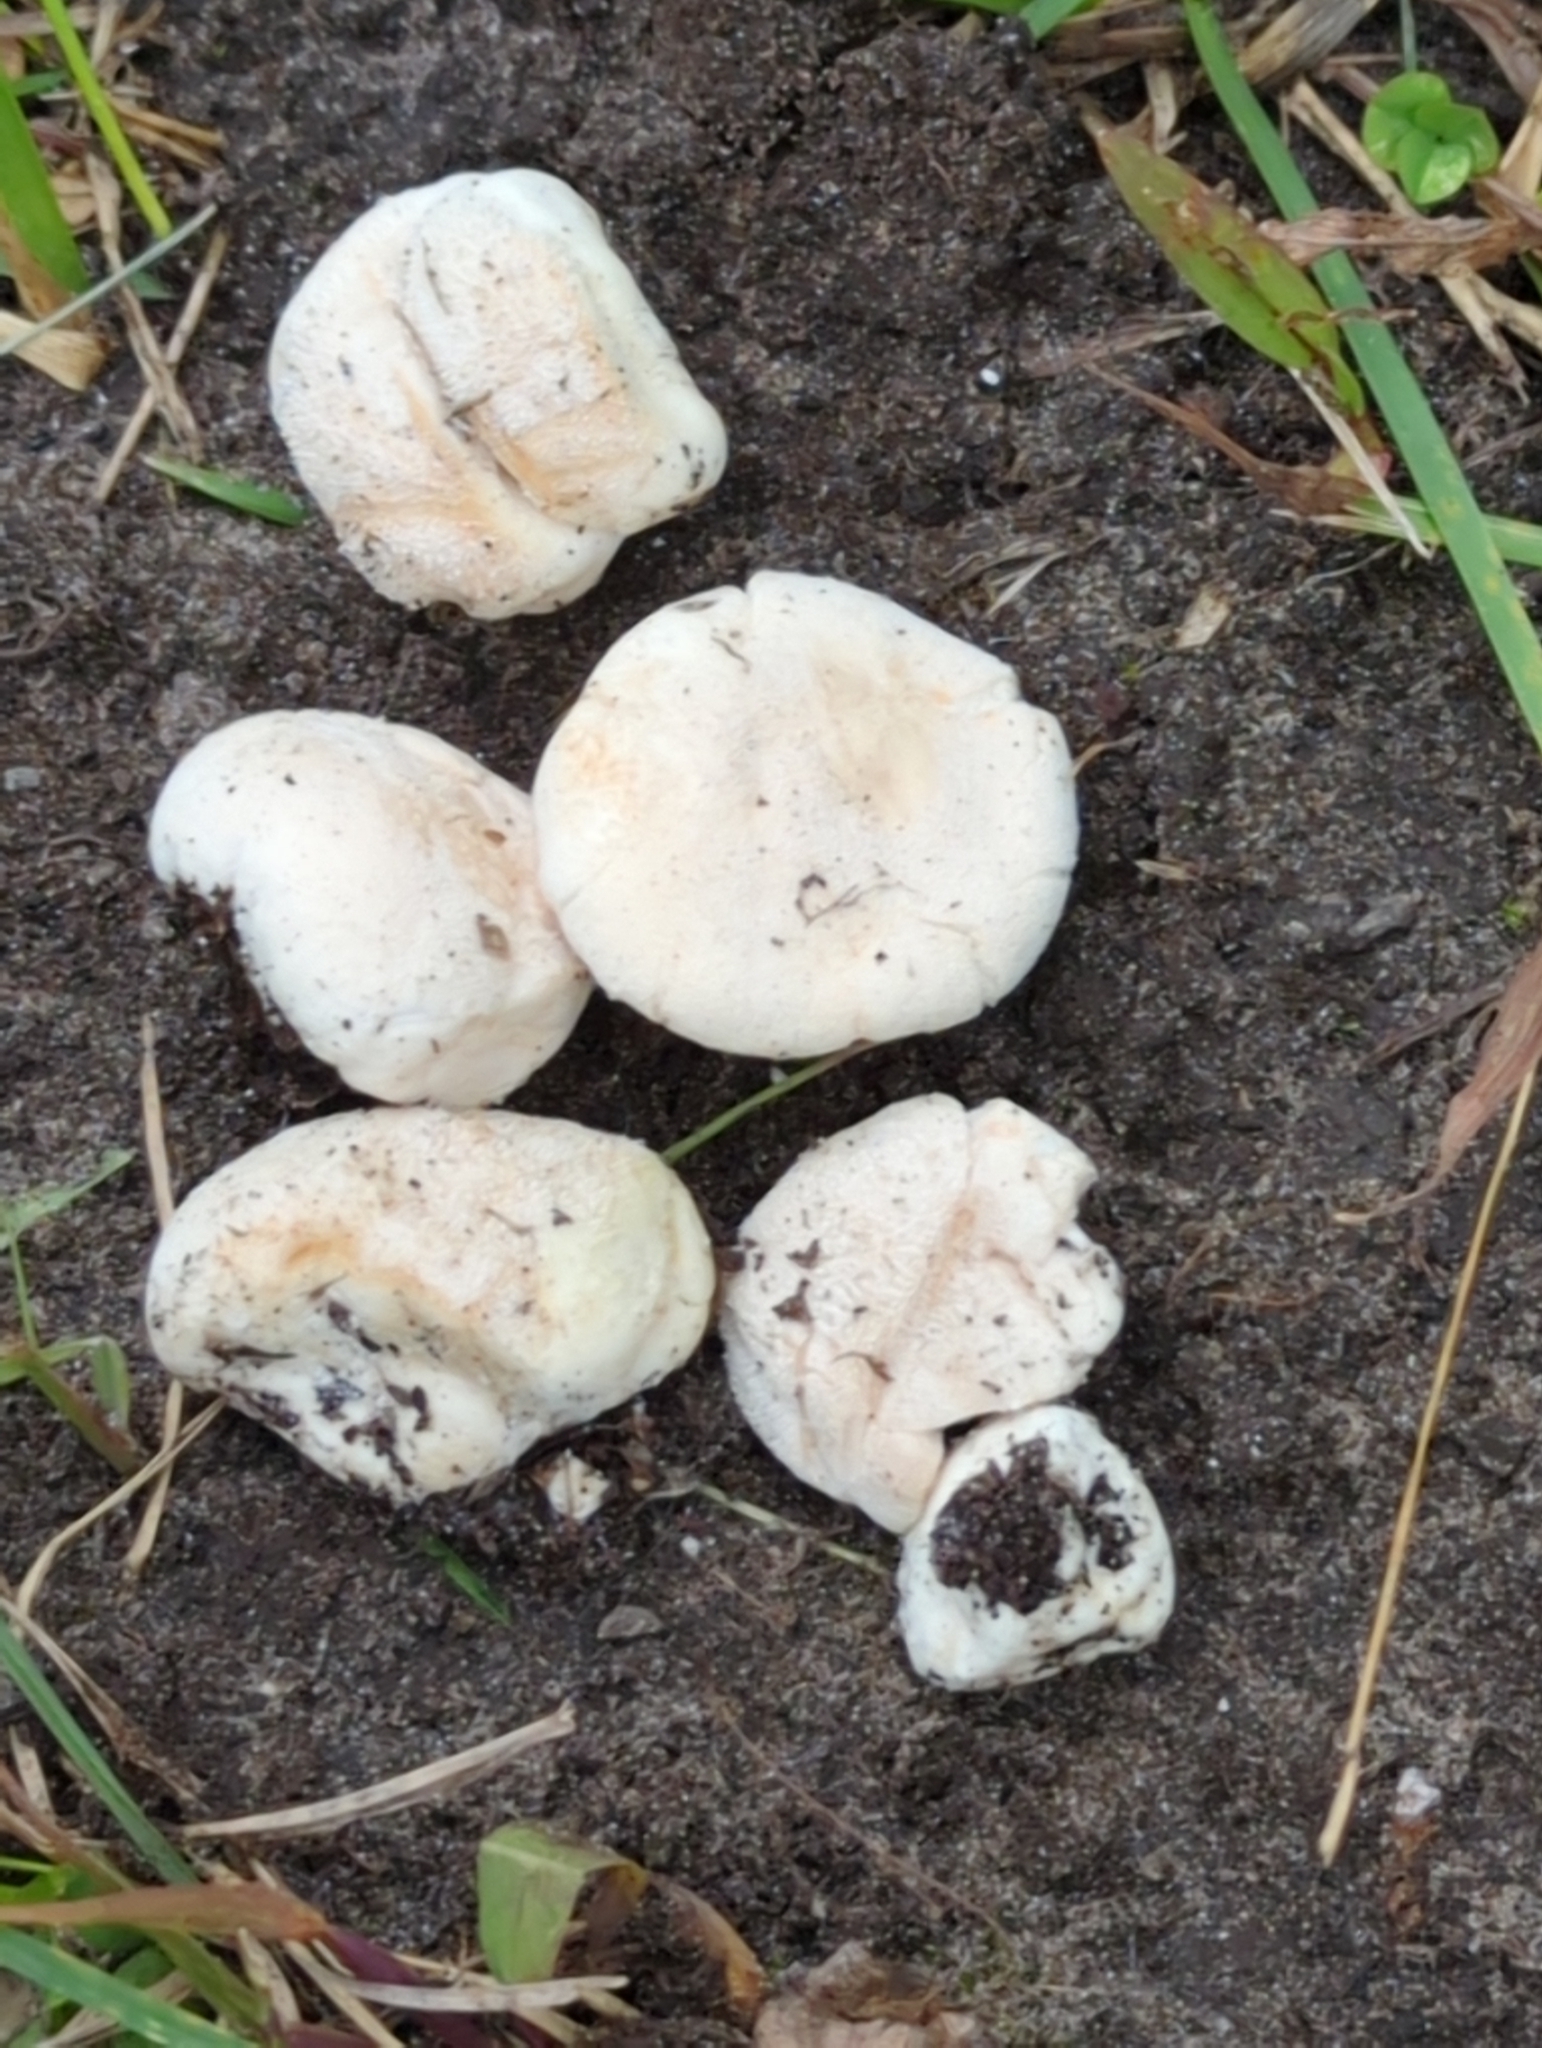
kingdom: Fungi
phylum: Basidiomycota
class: Agaricomycetes
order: Agaricales
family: Lycoperdaceae
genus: Lycoperdon
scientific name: Lycoperdon curtisii
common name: Curtis's puffball
